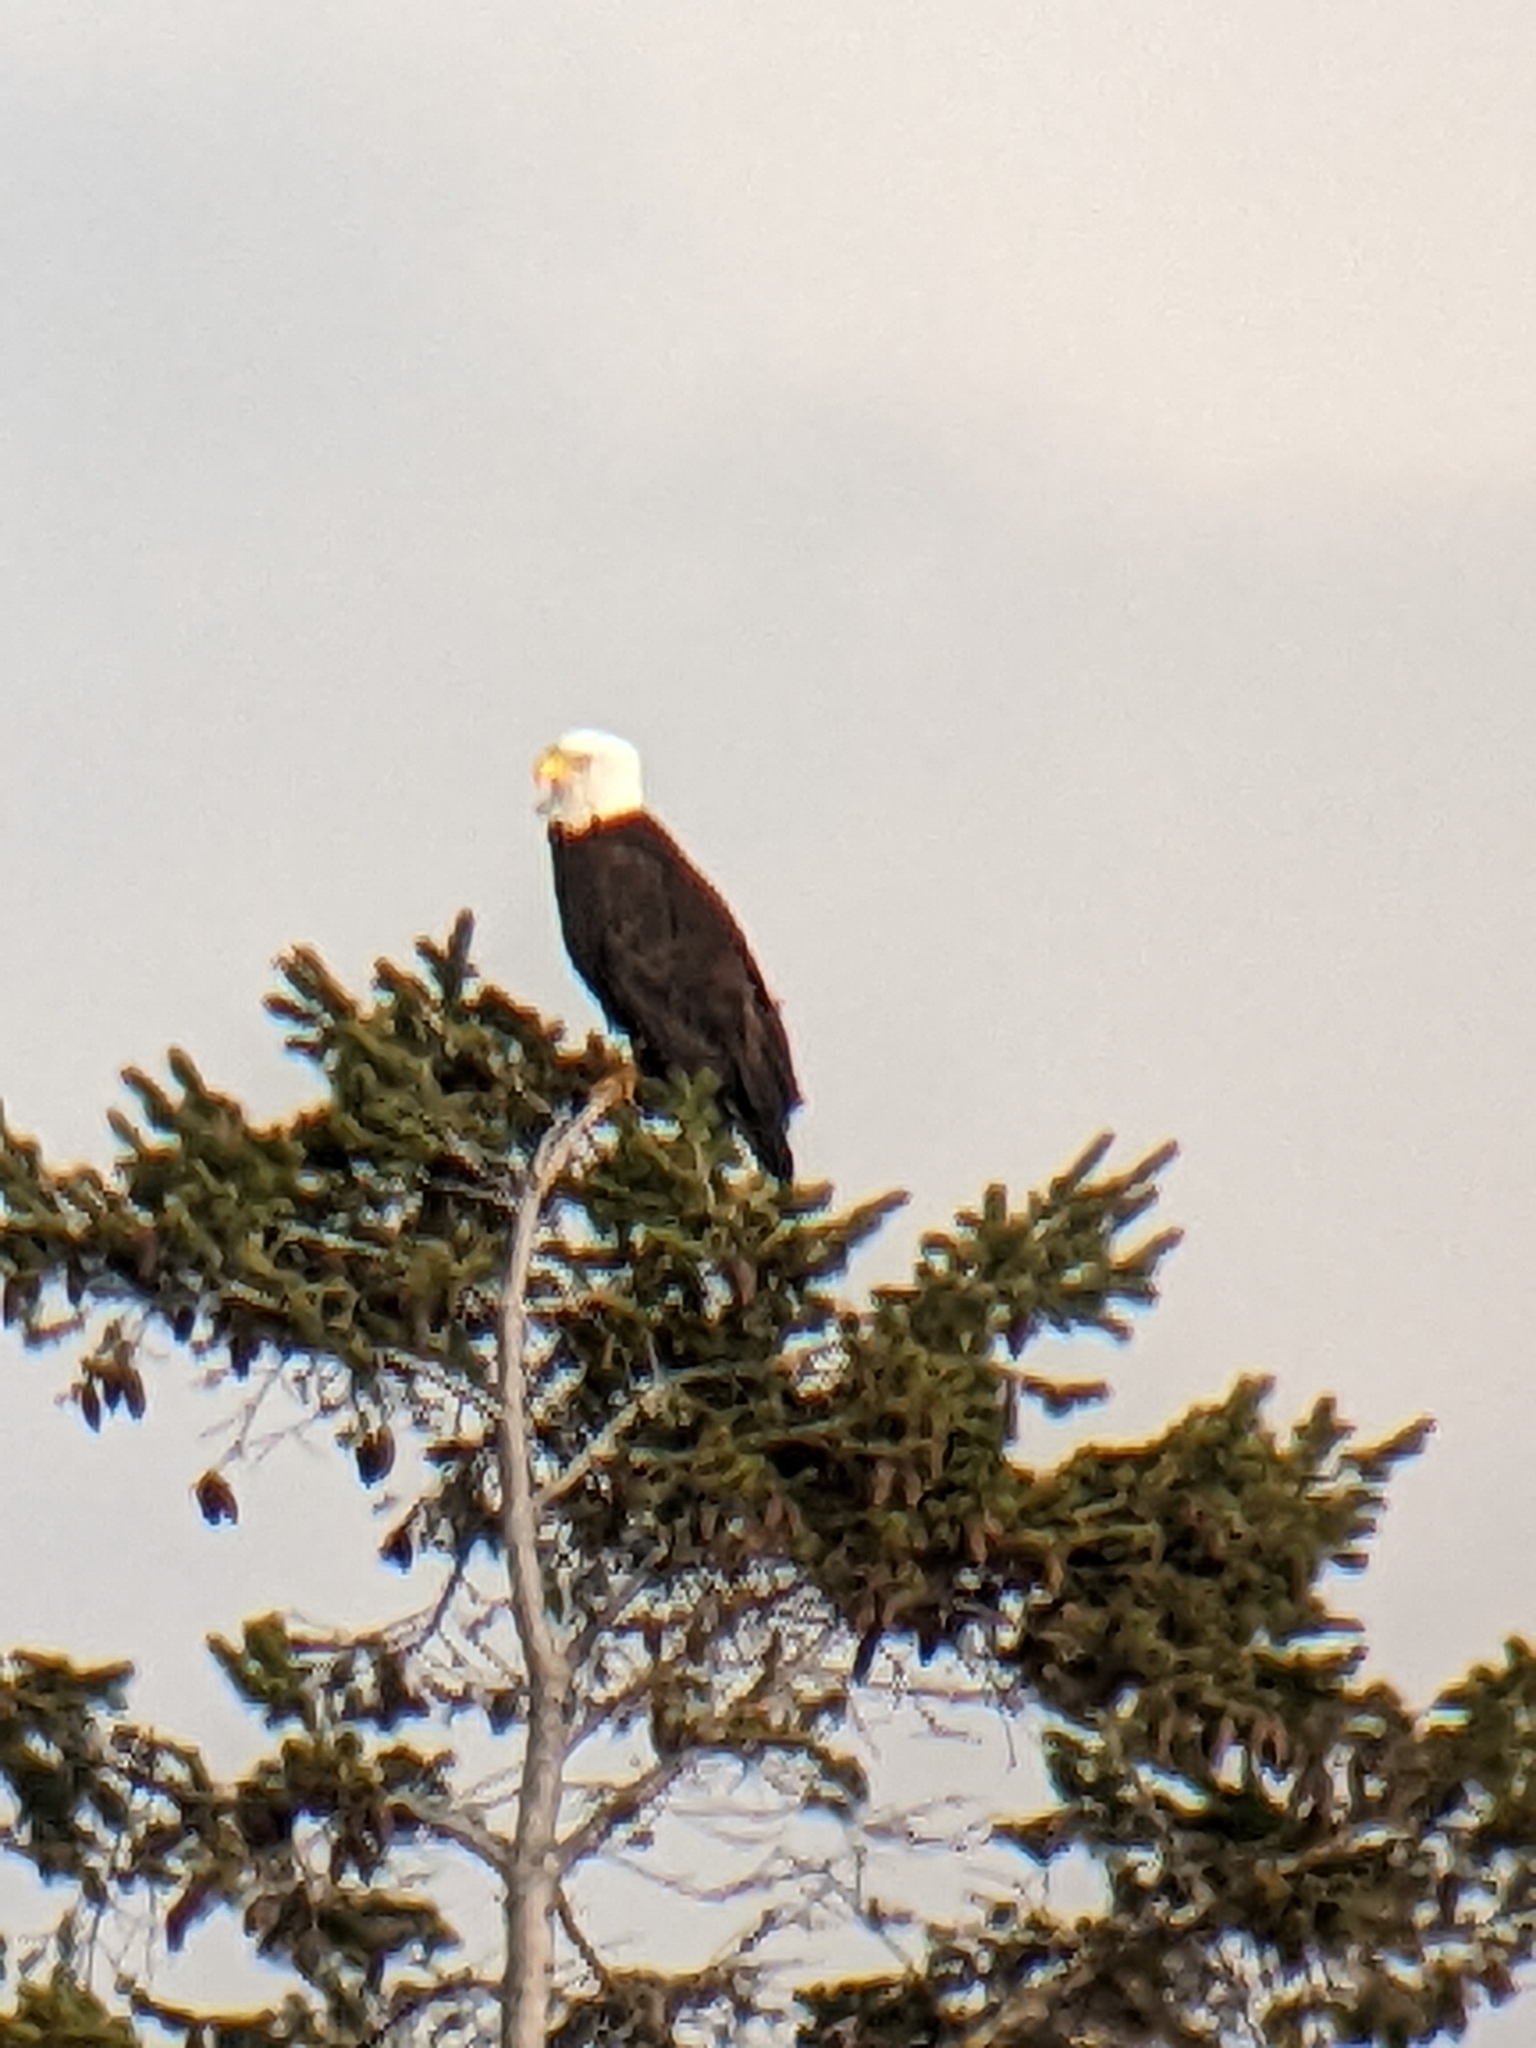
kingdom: Animalia
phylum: Chordata
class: Aves
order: Accipitriformes
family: Accipitridae
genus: Haliaeetus
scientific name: Haliaeetus leucocephalus
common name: Bald eagle
